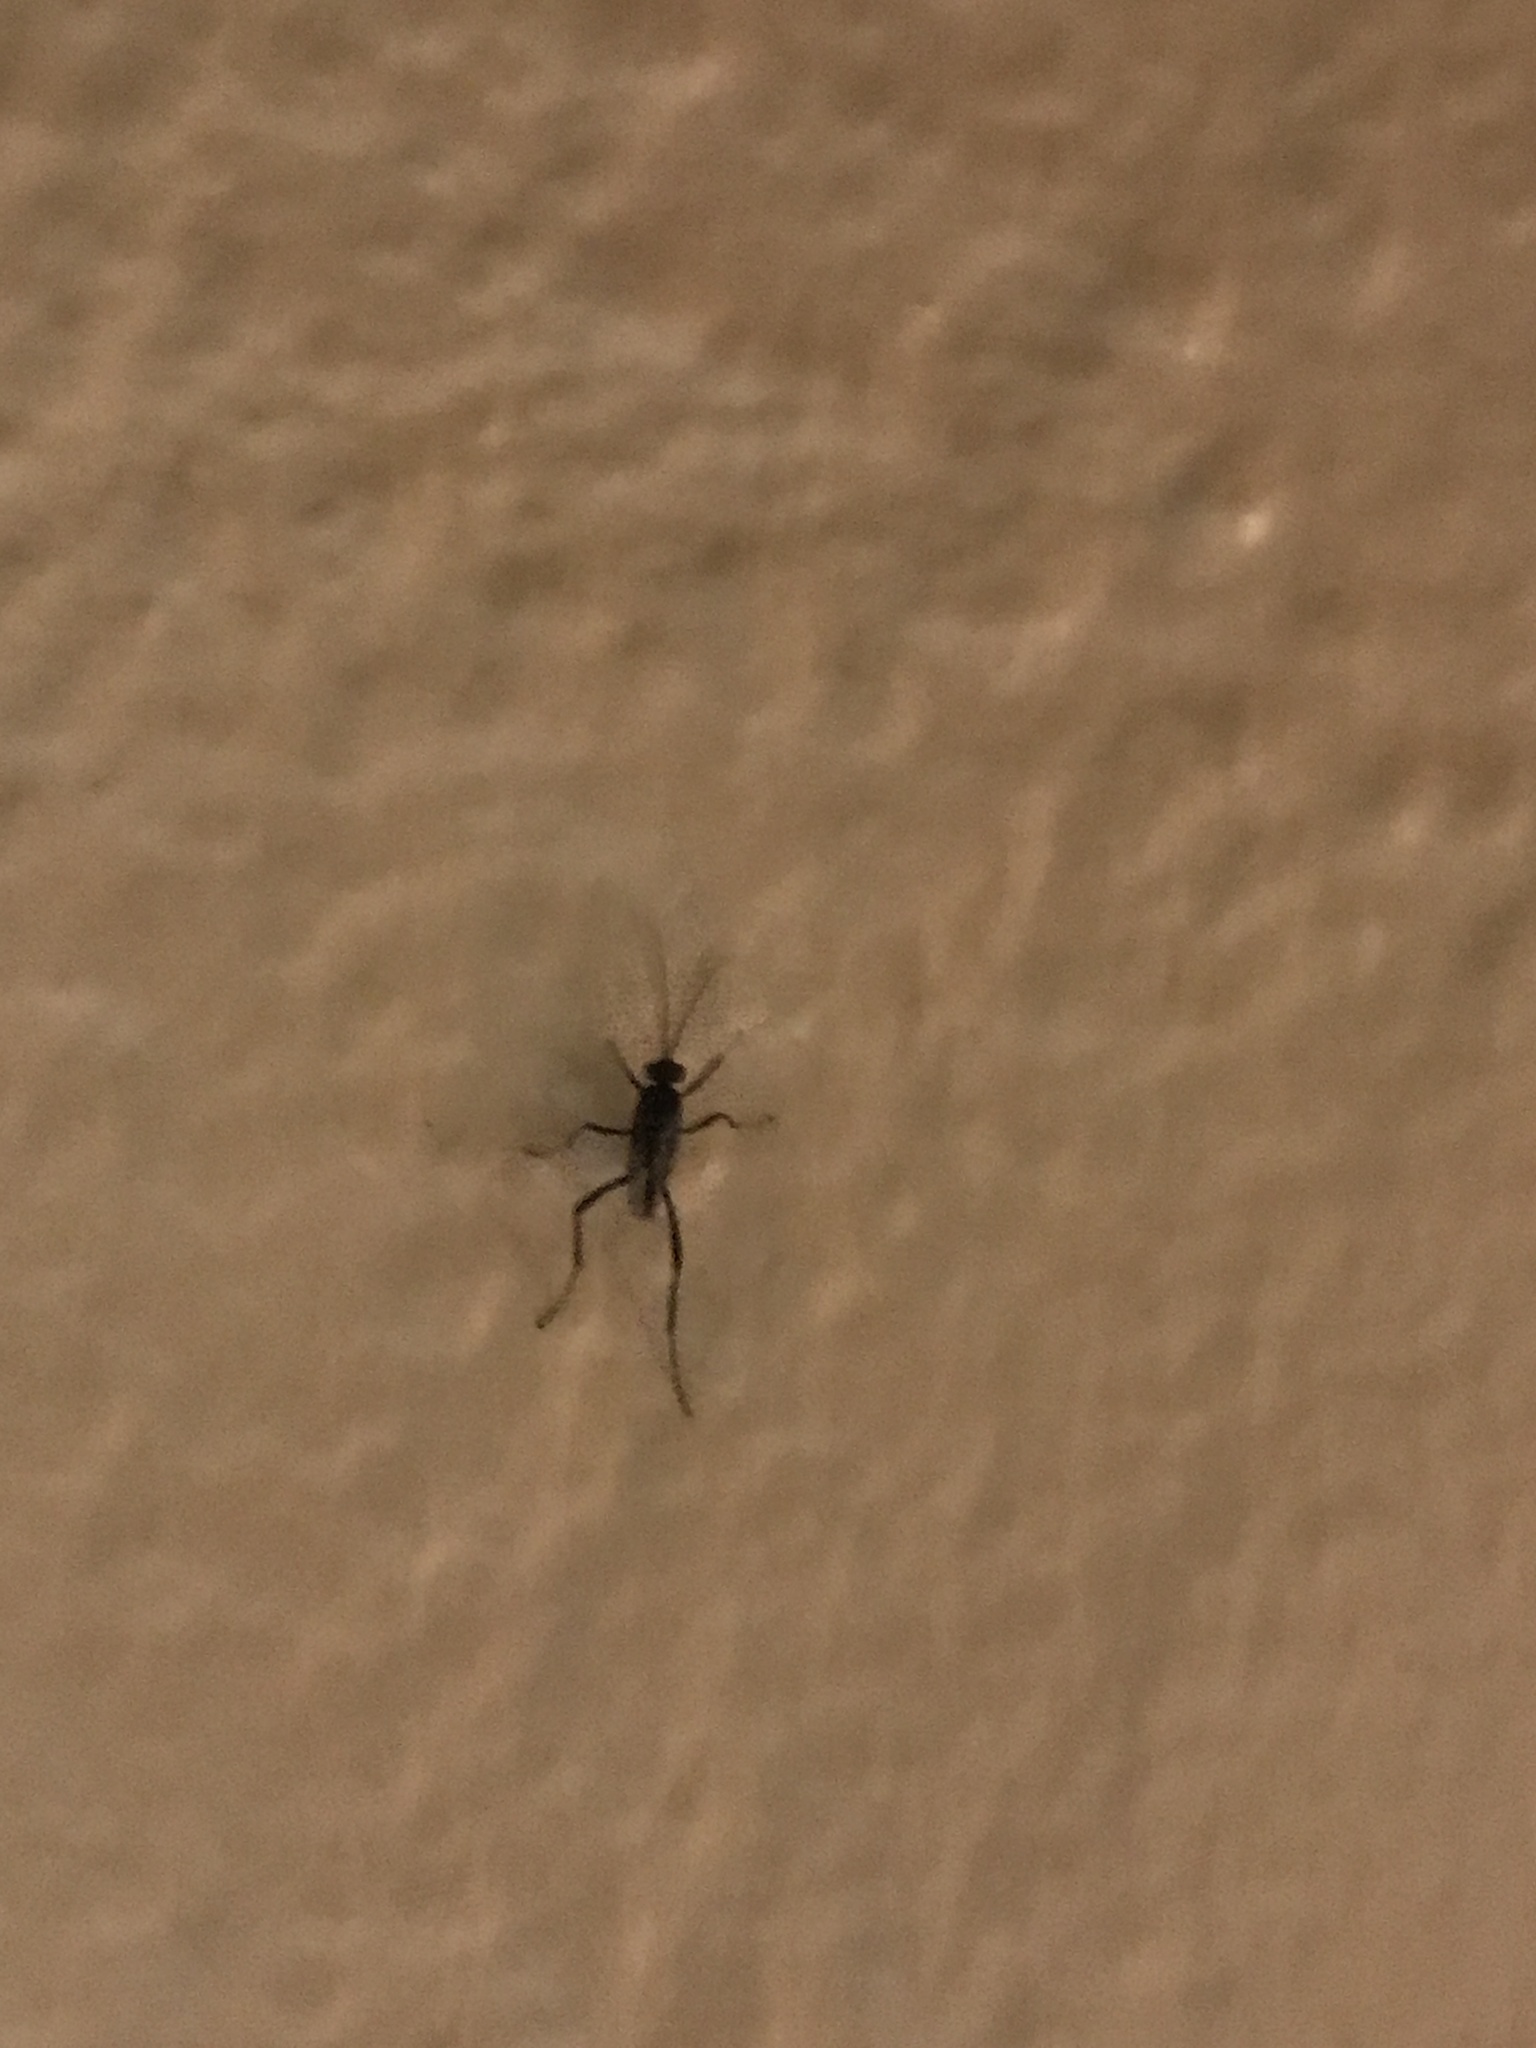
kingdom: Animalia
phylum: Arthropoda
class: Insecta
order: Hymenoptera
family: Evaniidae
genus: Evania
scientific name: Evania appendigaster
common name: Ensign wasp
